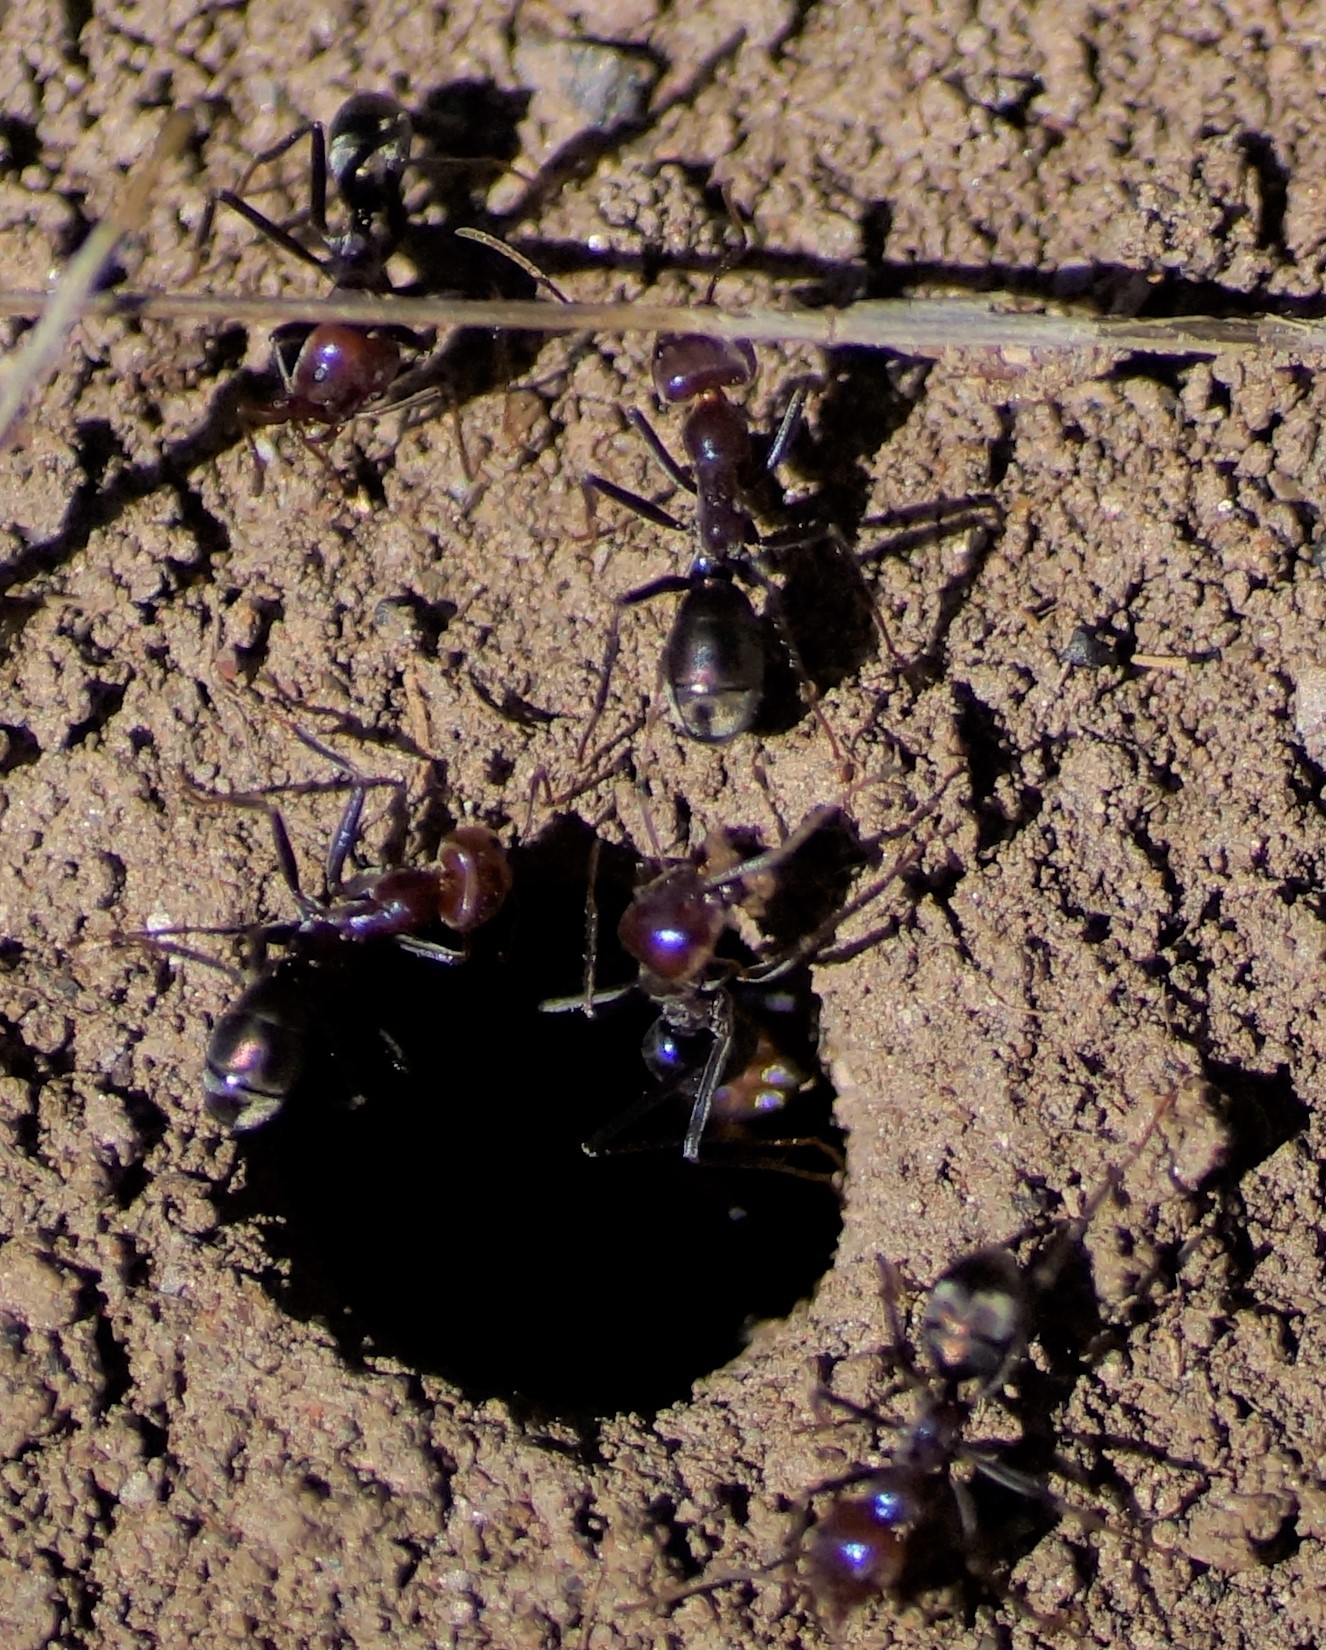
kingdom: Animalia
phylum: Arthropoda
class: Insecta
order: Hymenoptera
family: Formicidae
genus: Iridomyrmex
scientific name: Iridomyrmex purpureus
